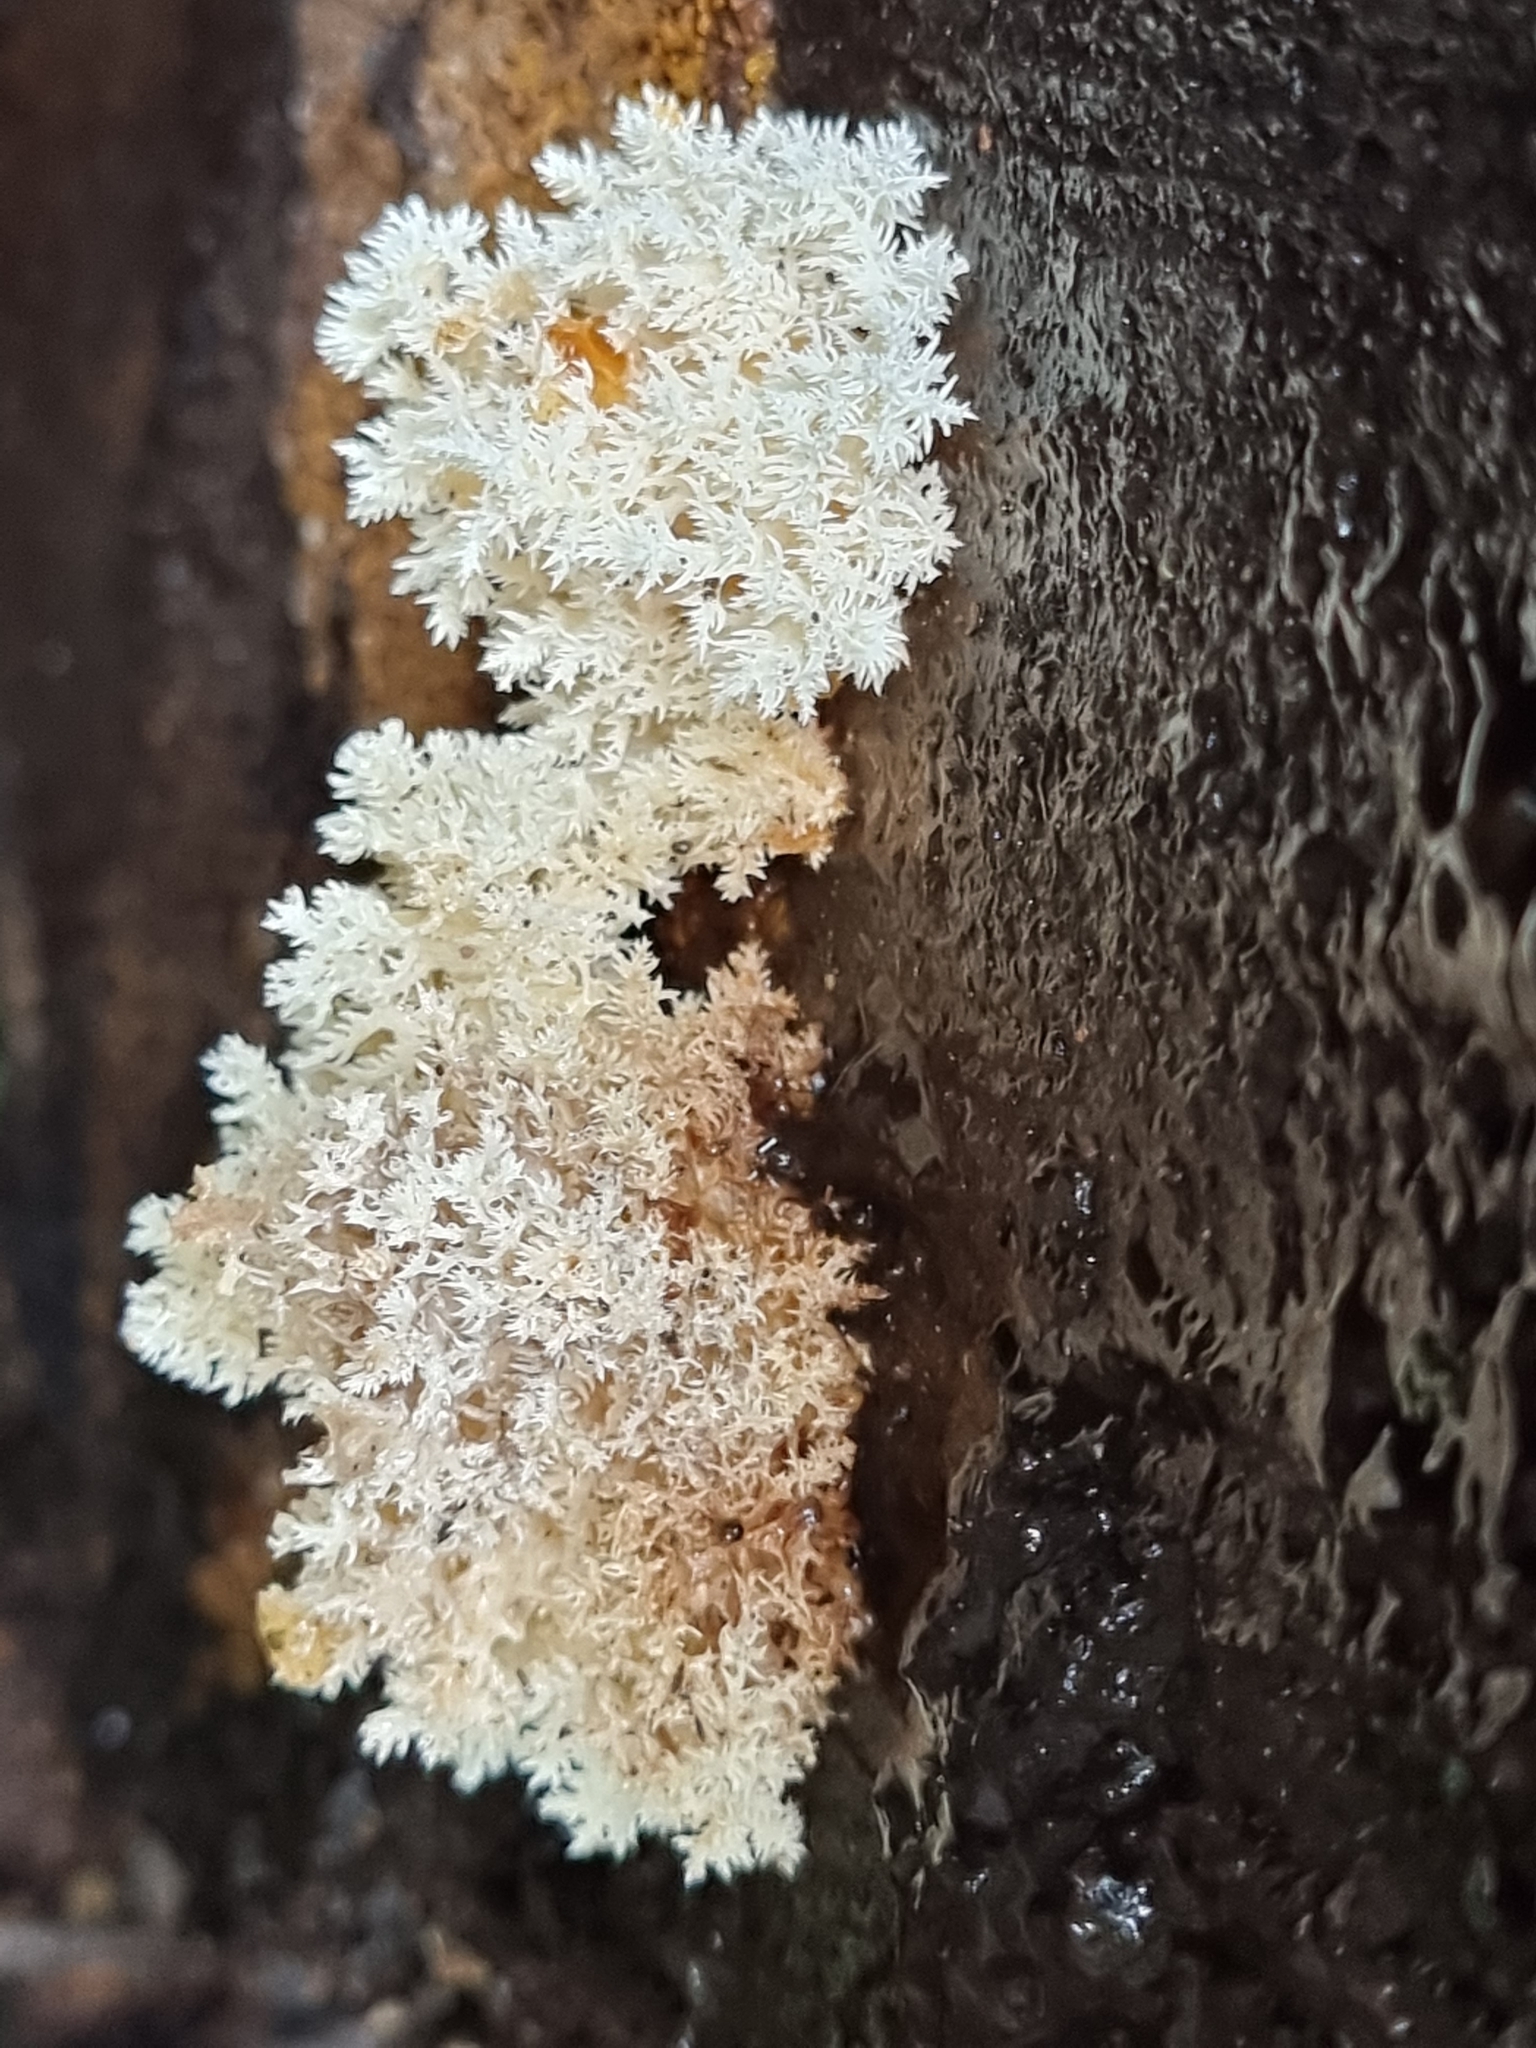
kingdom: Fungi
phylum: Basidiomycota
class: Agaricomycetes
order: Russulales
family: Hericiaceae
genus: Hericium
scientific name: Hericium coralloides
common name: Coral tooth
